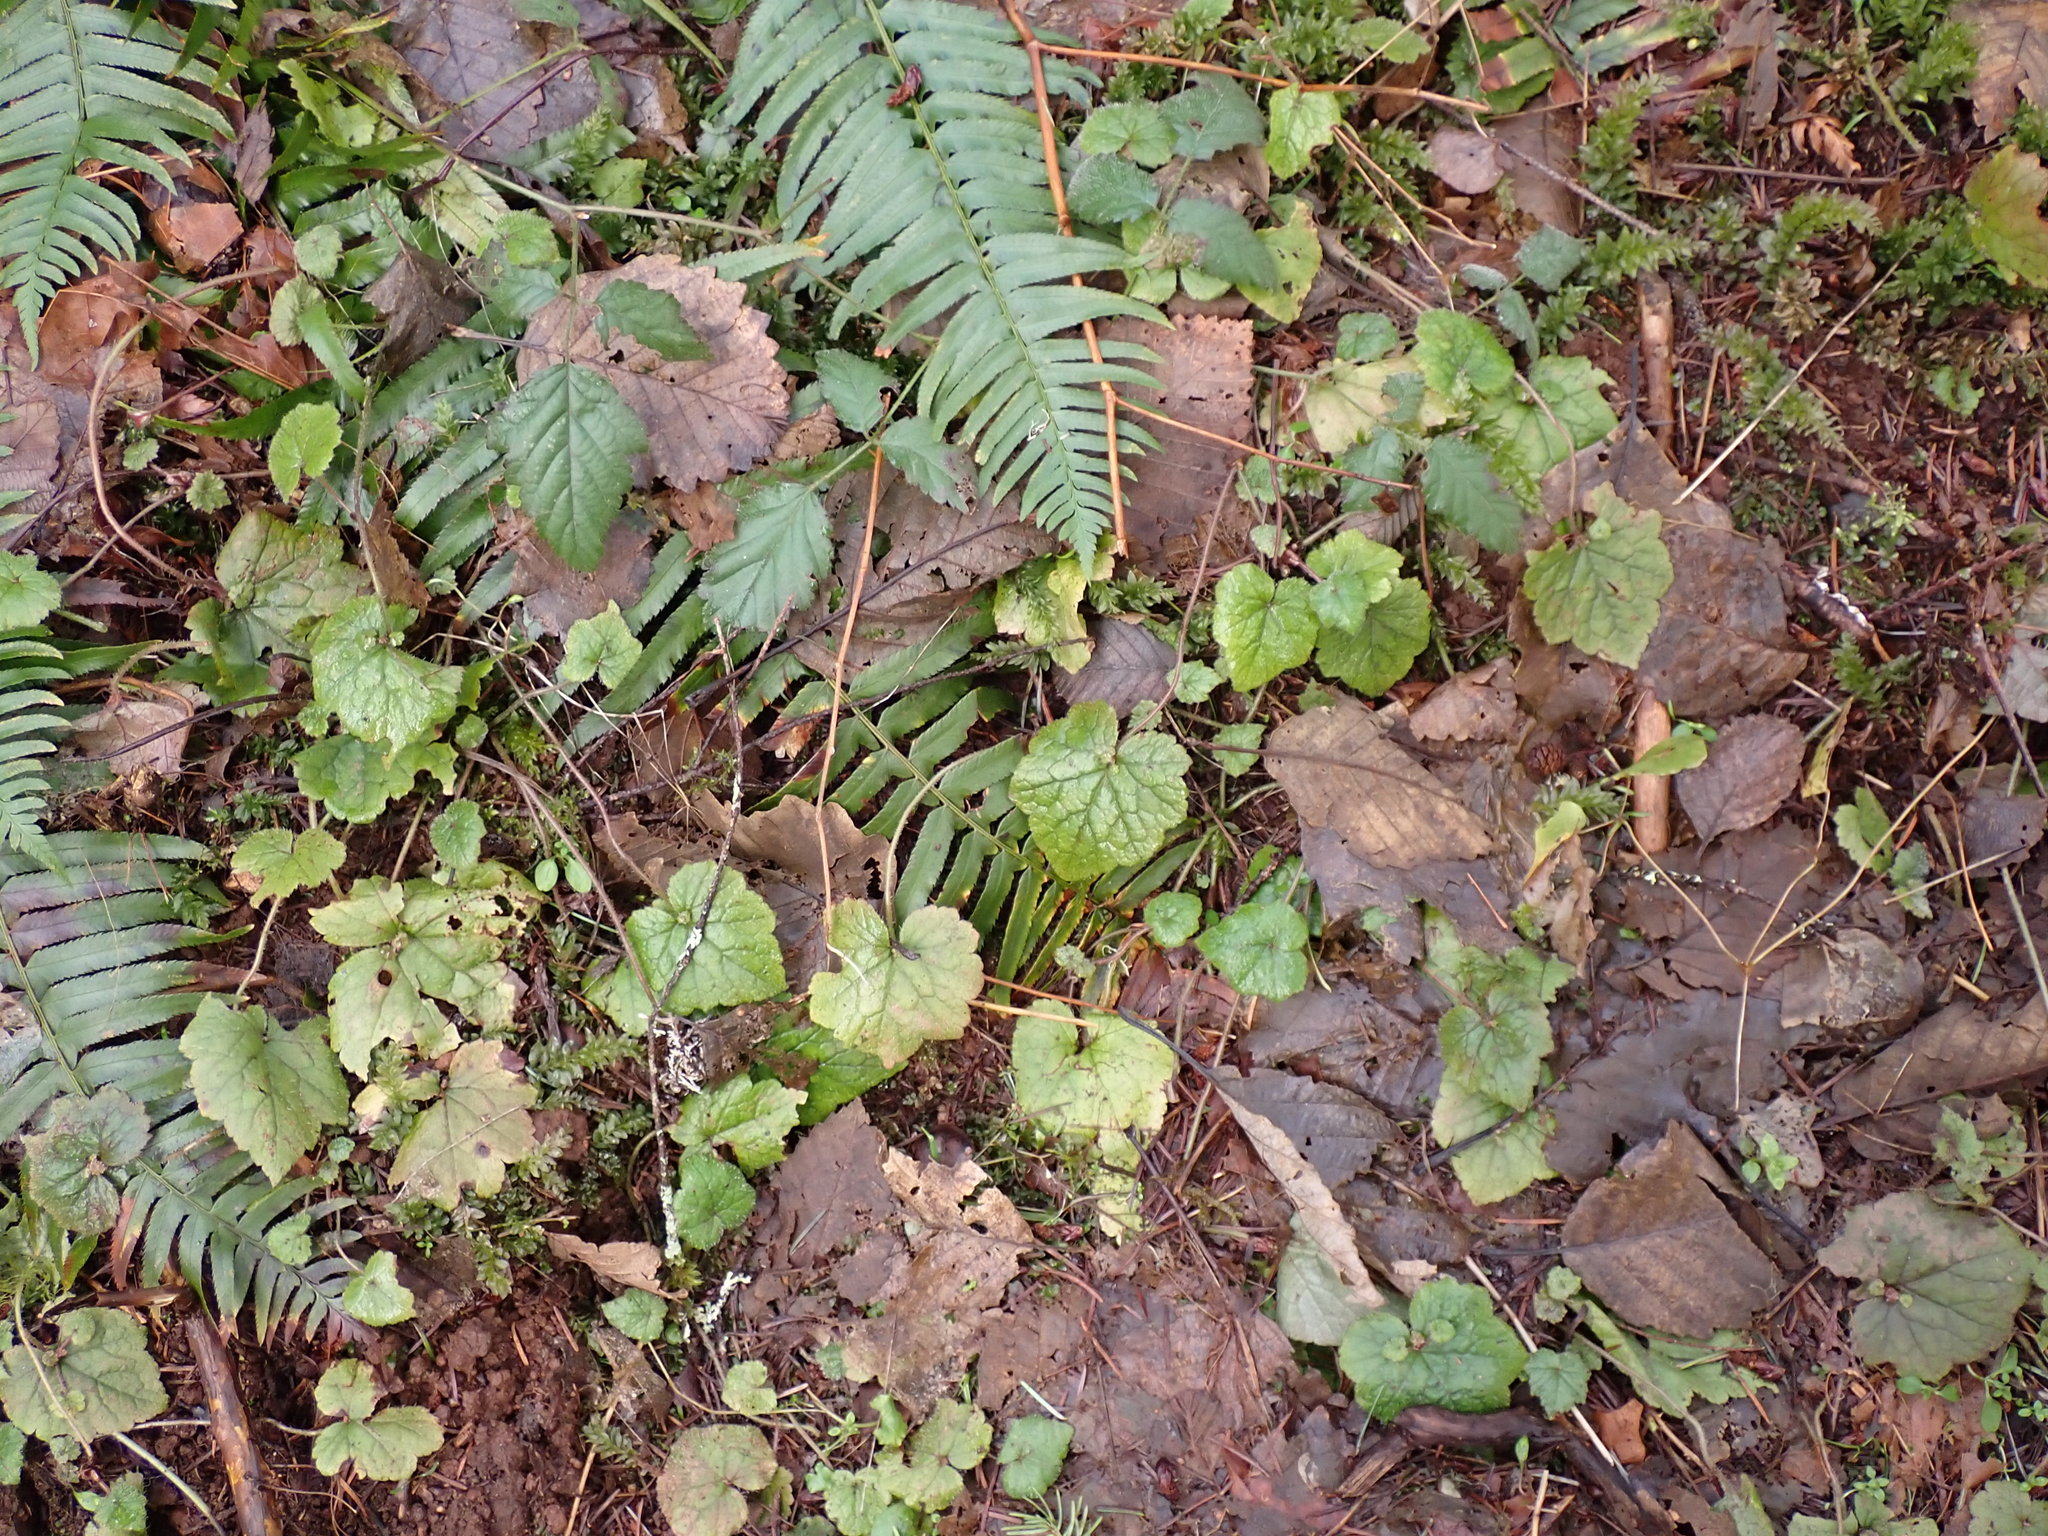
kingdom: Plantae
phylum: Tracheophyta
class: Magnoliopsida
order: Saxifragales
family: Saxifragaceae
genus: Tolmiea
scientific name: Tolmiea menziesii
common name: Pick-a-back-plant
